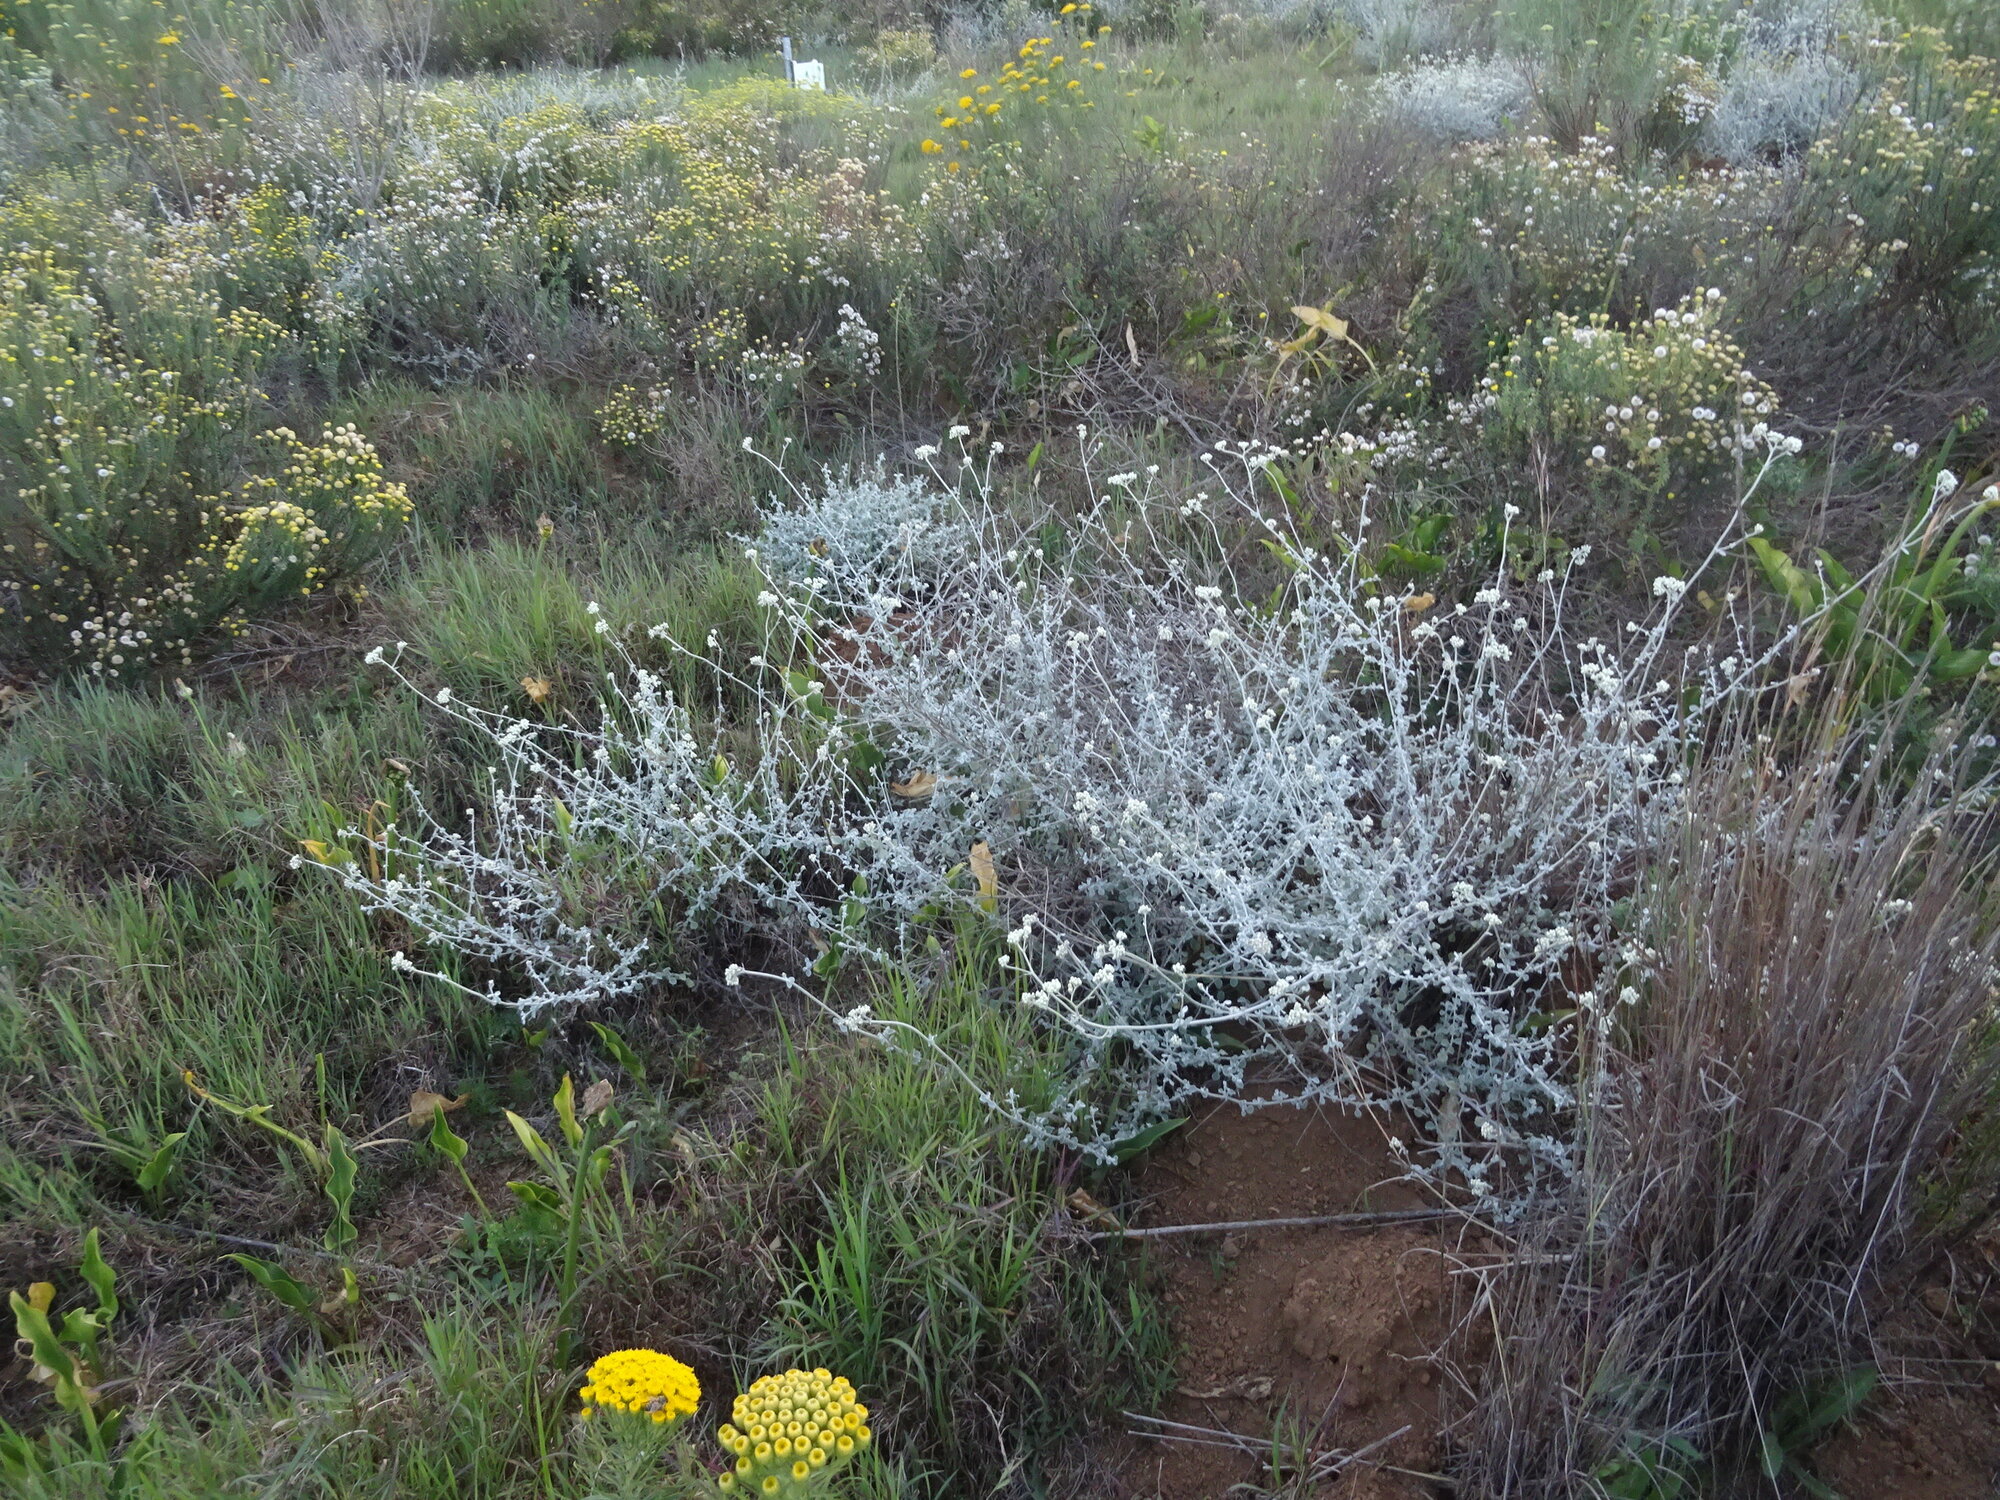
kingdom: Plantae
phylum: Tracheophyta
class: Magnoliopsida
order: Asterales
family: Asteraceae
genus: Helichrysum
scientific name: Helichrysum patulum
